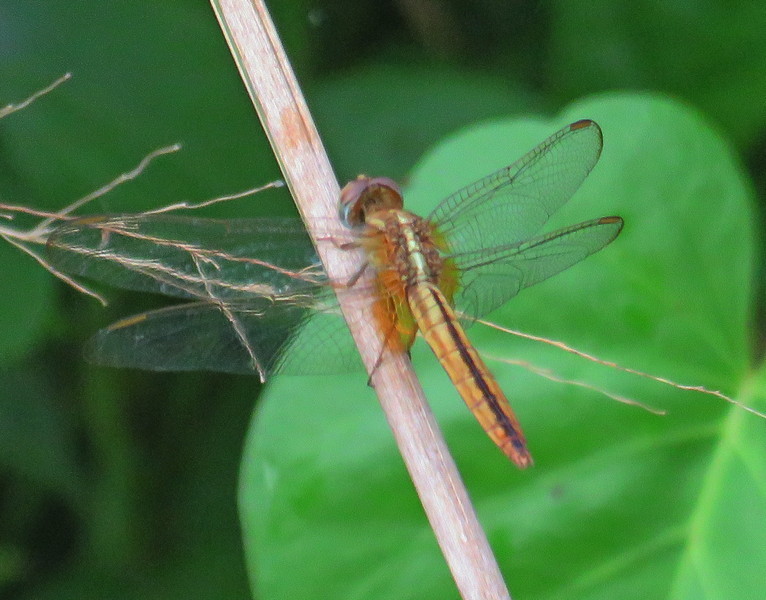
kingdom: Animalia
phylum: Arthropoda
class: Insecta
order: Odonata
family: Libellulidae
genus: Crocothemis
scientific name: Crocothemis servilia
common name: Scarlet skimmer
